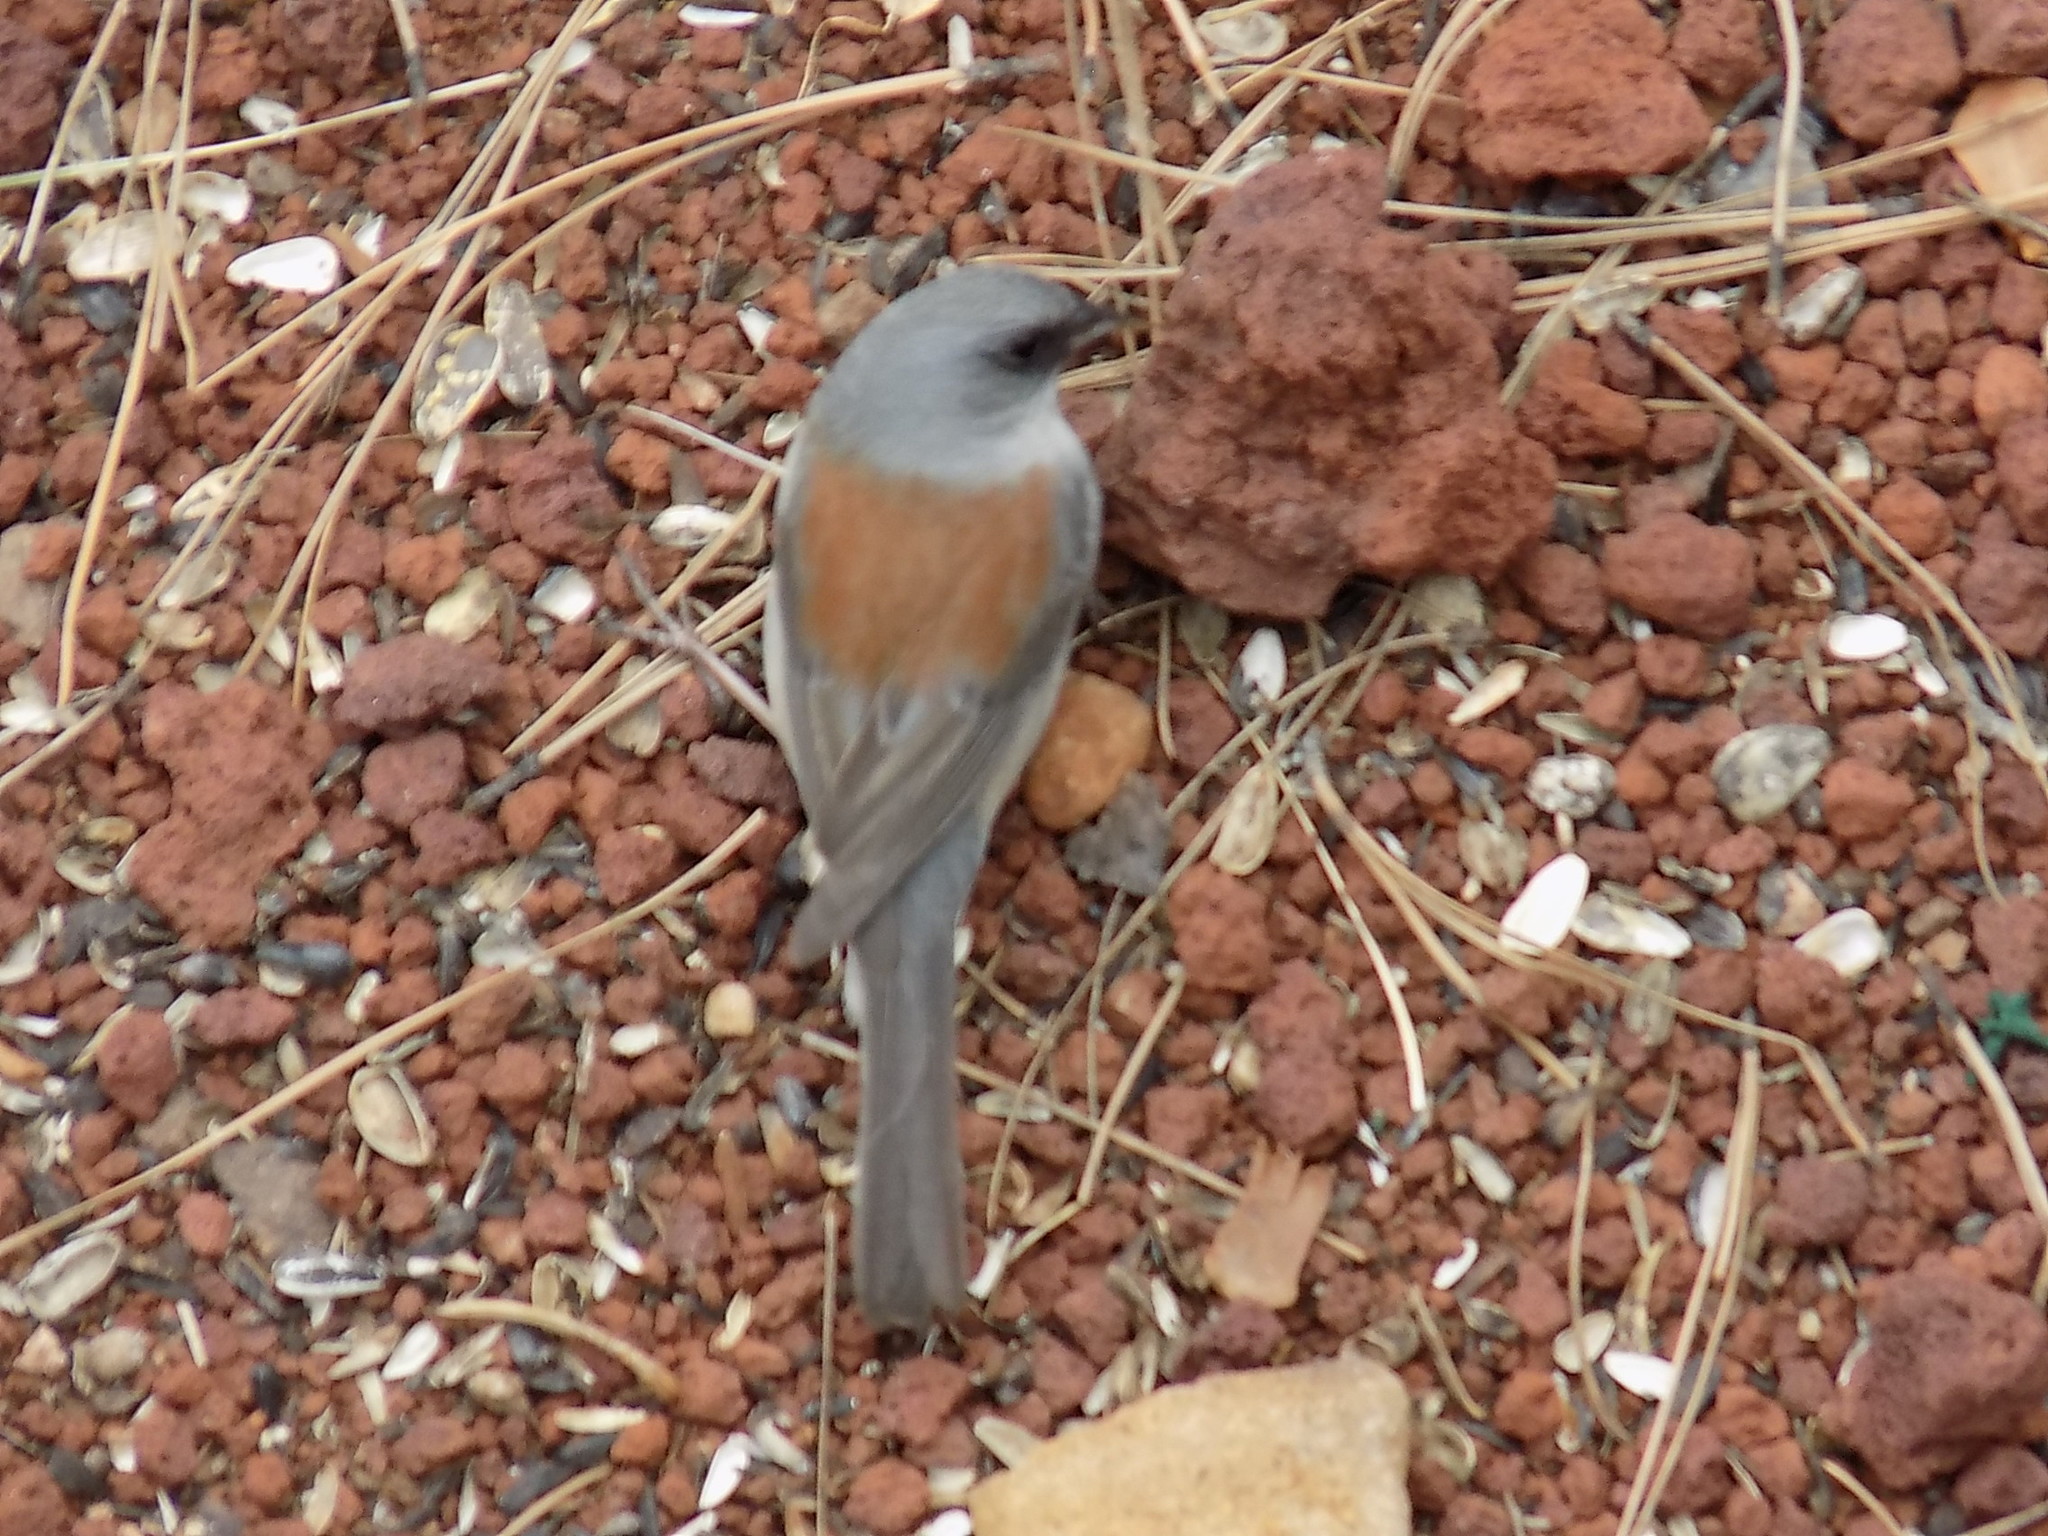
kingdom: Animalia
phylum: Chordata
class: Aves
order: Passeriformes
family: Passerellidae
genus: Junco
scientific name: Junco hyemalis
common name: Dark-eyed junco
